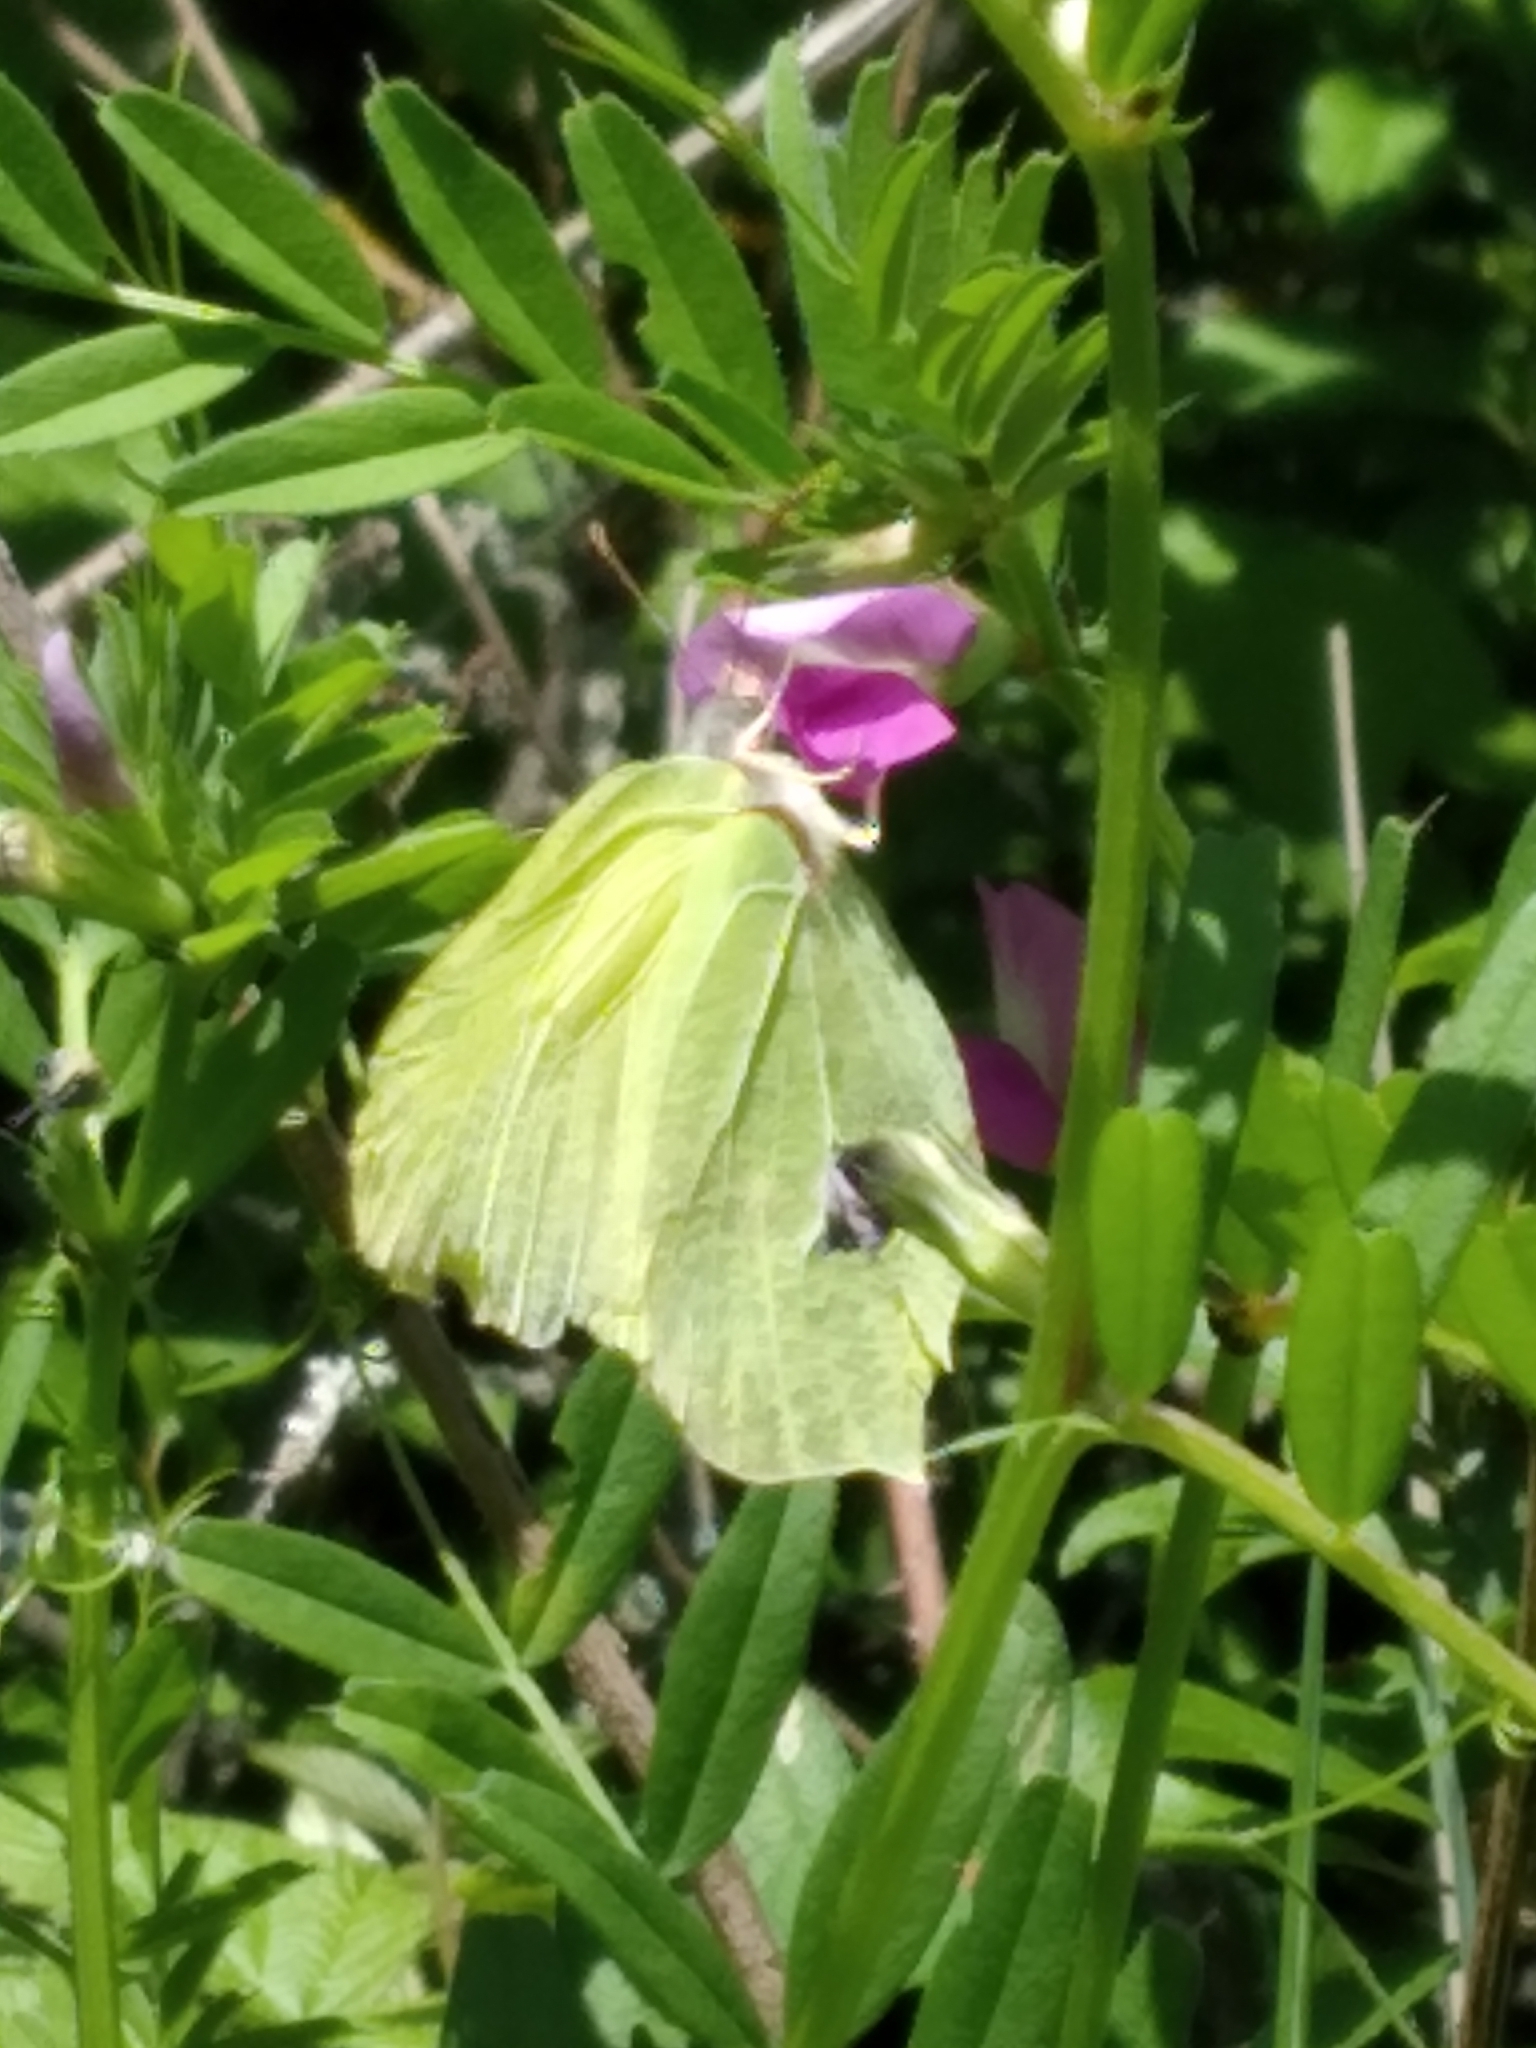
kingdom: Animalia
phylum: Arthropoda
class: Insecta
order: Lepidoptera
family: Pieridae
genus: Gonepteryx
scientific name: Gonepteryx rhamni
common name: Brimstone
